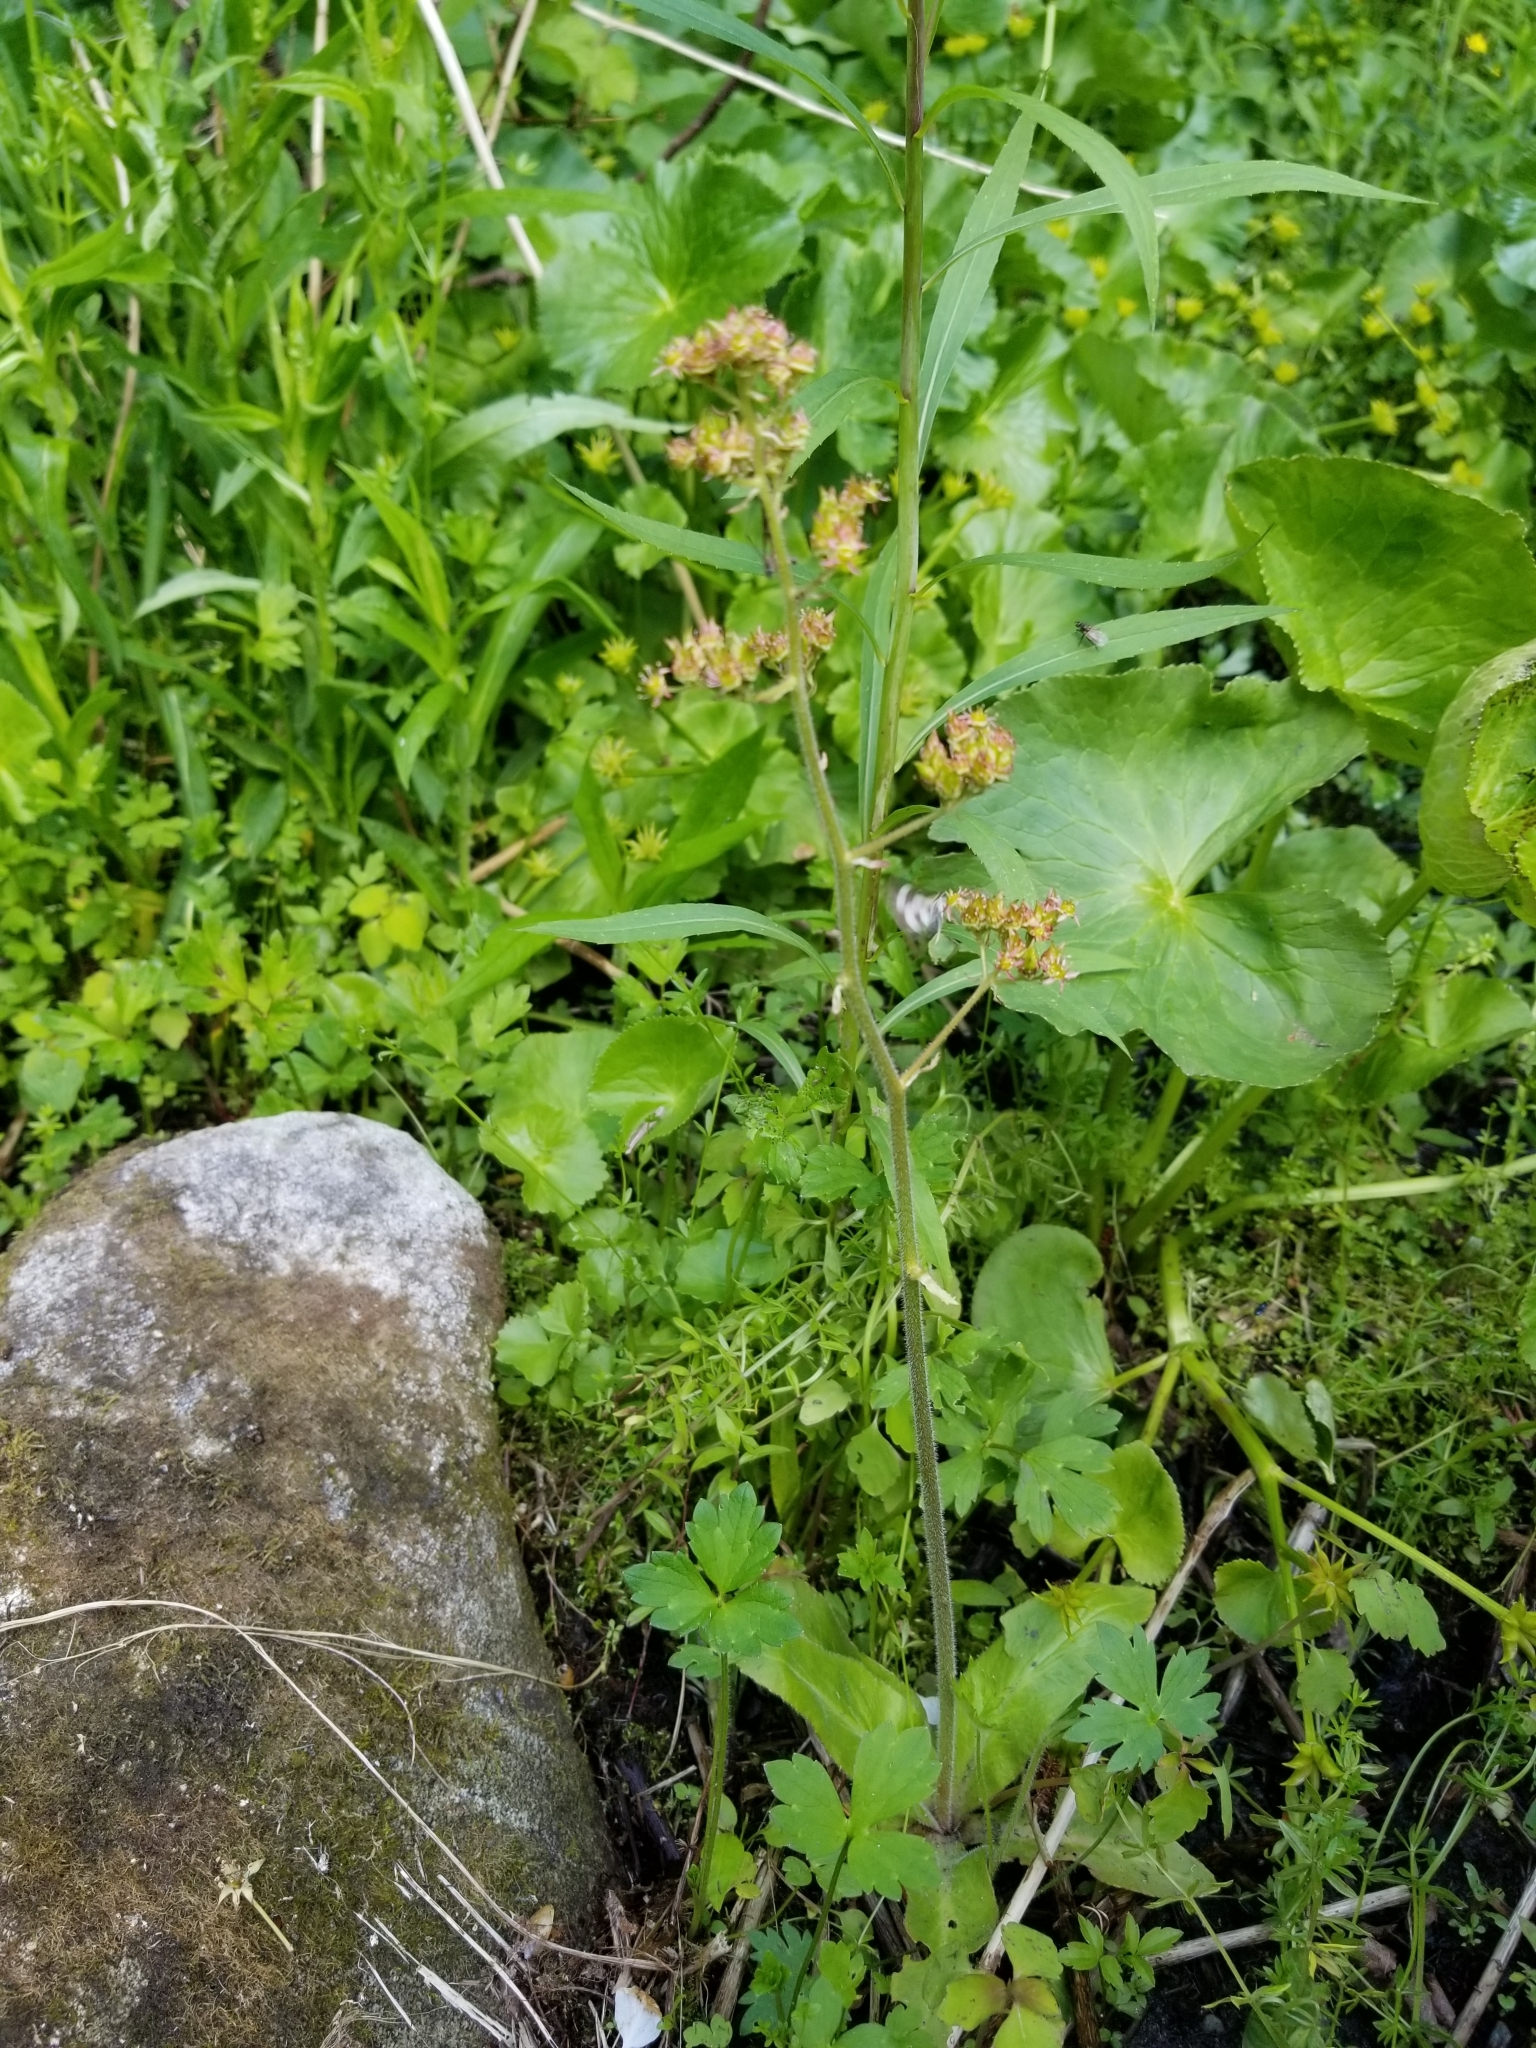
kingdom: Plantae
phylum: Tracheophyta
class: Magnoliopsida
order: Saxifragales
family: Saxifragaceae
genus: Micranthes
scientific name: Micranthes pensylvanica
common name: Marsh saxifrage
